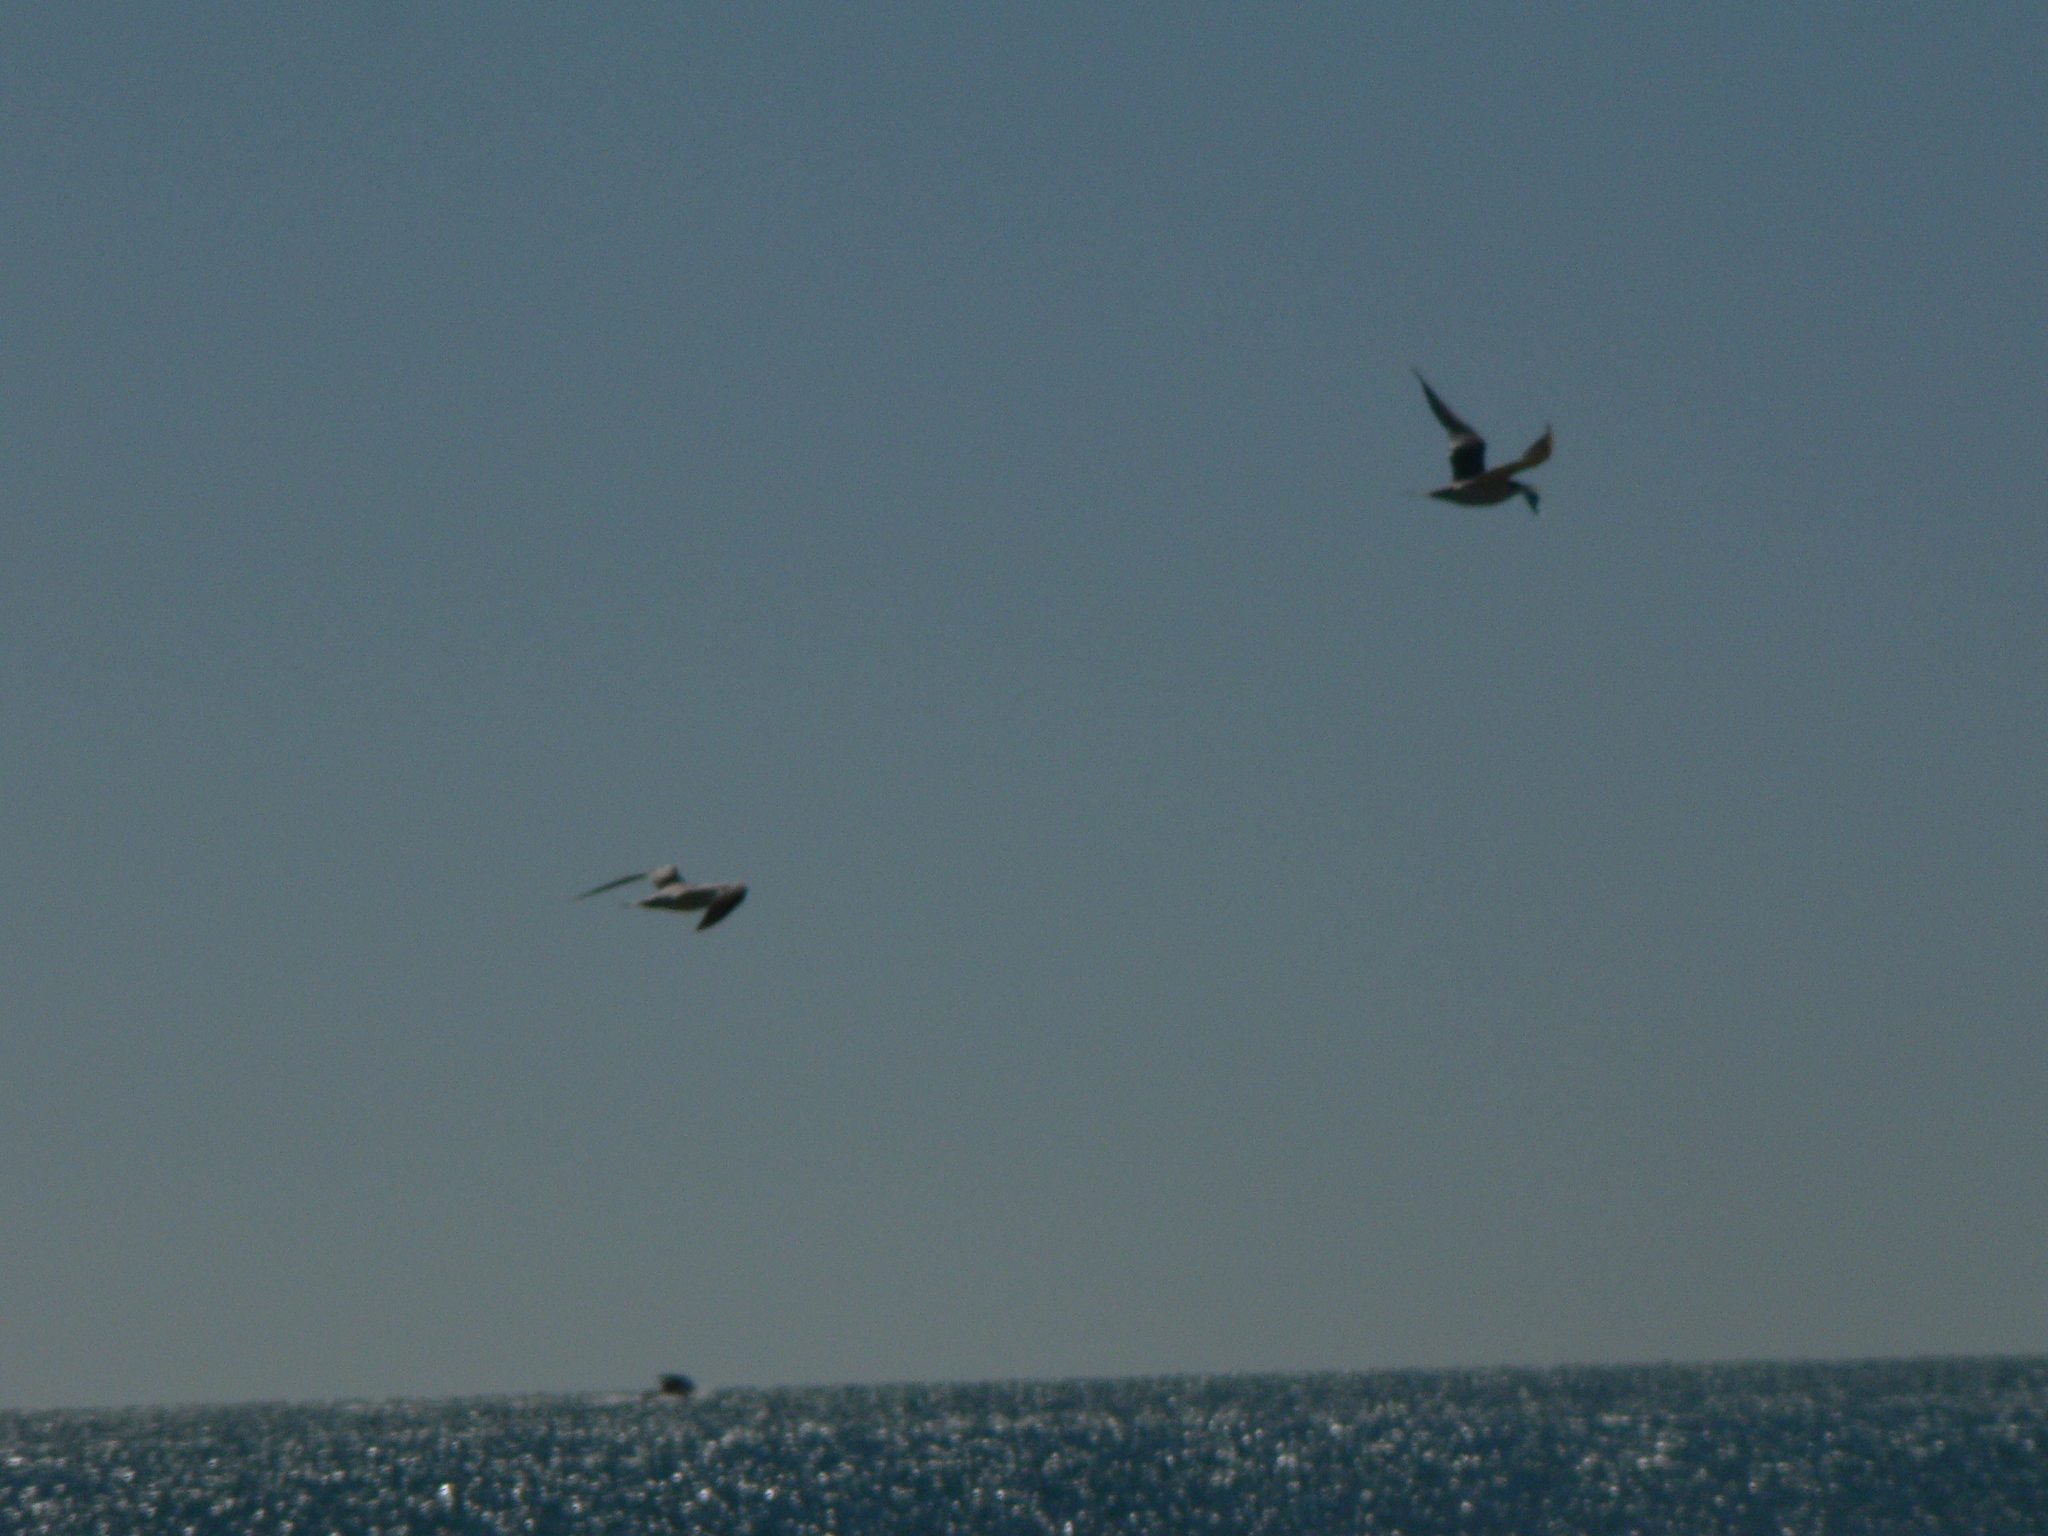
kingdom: Animalia
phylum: Chordata
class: Aves
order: Charadriiformes
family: Laridae
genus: Thalasseus
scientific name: Thalasseus bergii
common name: Greater crested tern
